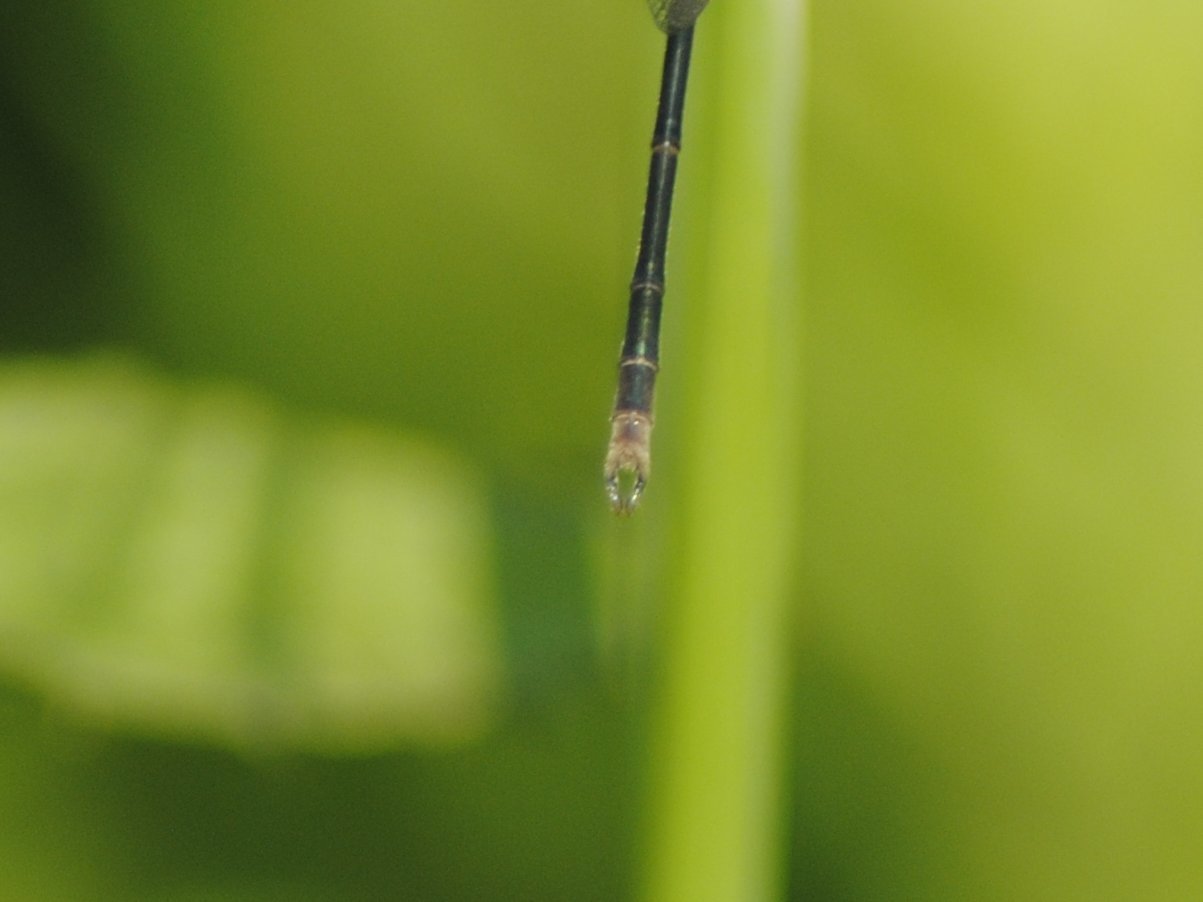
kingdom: Animalia
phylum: Arthropoda
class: Insecta
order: Odonata
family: Lestidae
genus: Lestes
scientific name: Lestes vigilax
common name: Swamp spreadwing
